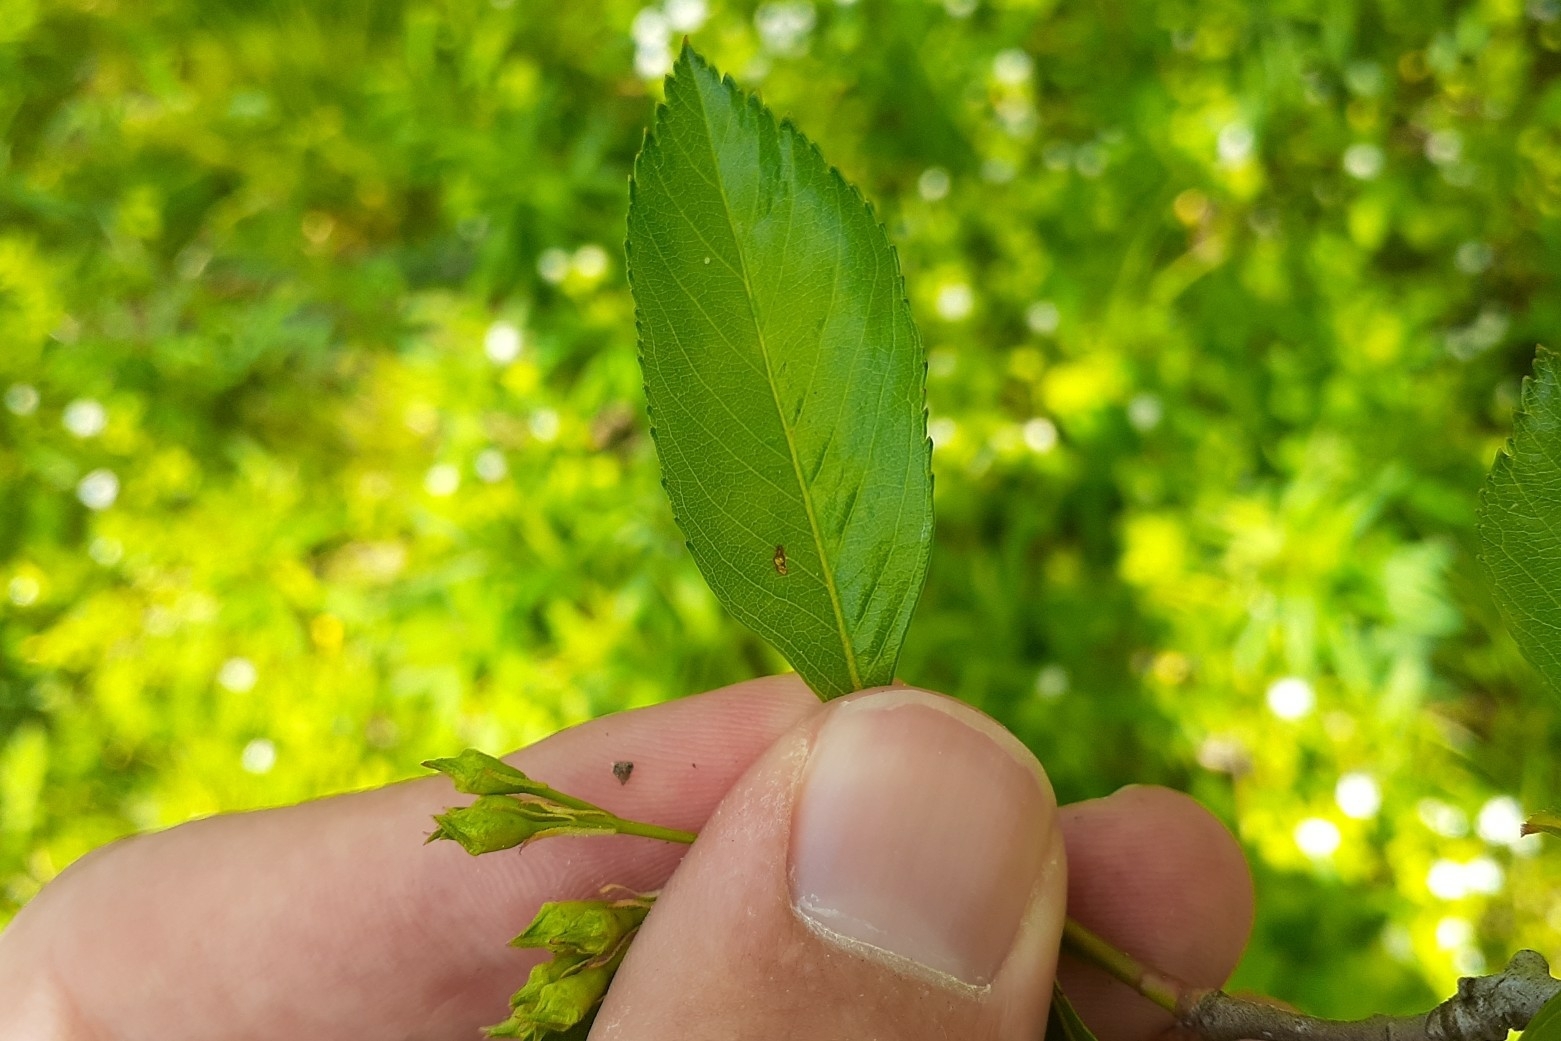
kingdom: Plantae
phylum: Tracheophyta
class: Magnoliopsida
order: Rosales
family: Rosaceae
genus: Crataegus
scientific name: Crataegus crus-galli
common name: Cockspurthorn
